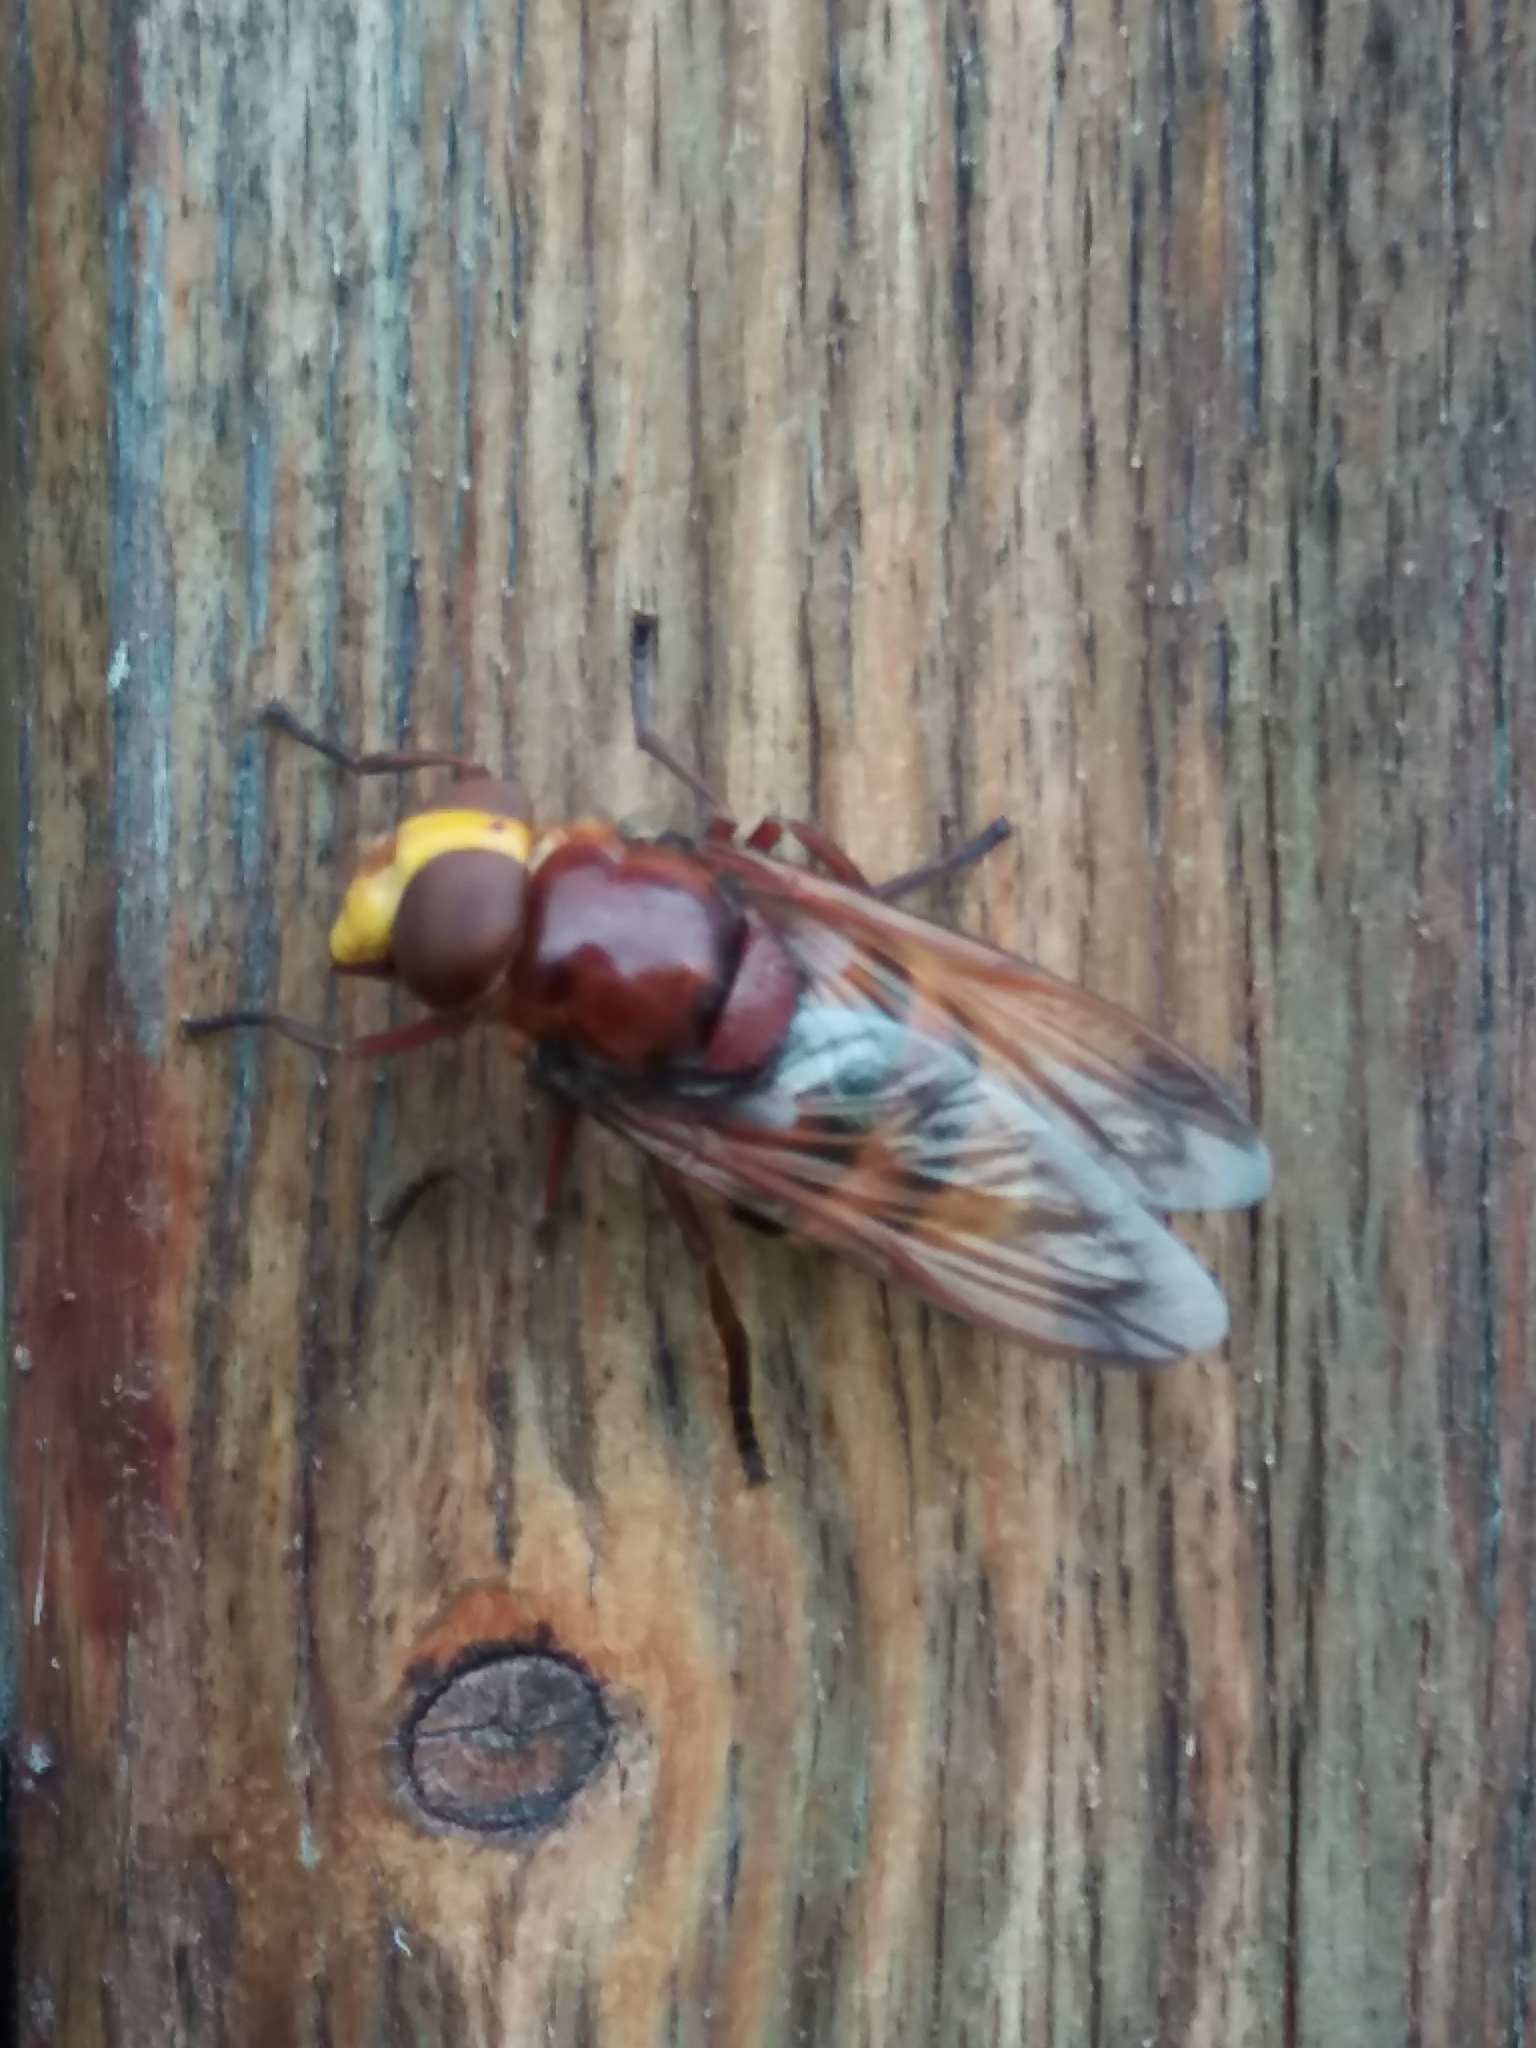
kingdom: Animalia
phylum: Arthropoda
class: Insecta
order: Diptera
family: Syrphidae
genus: Volucella
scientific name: Volucella zonaria
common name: Hornet hoverfly
